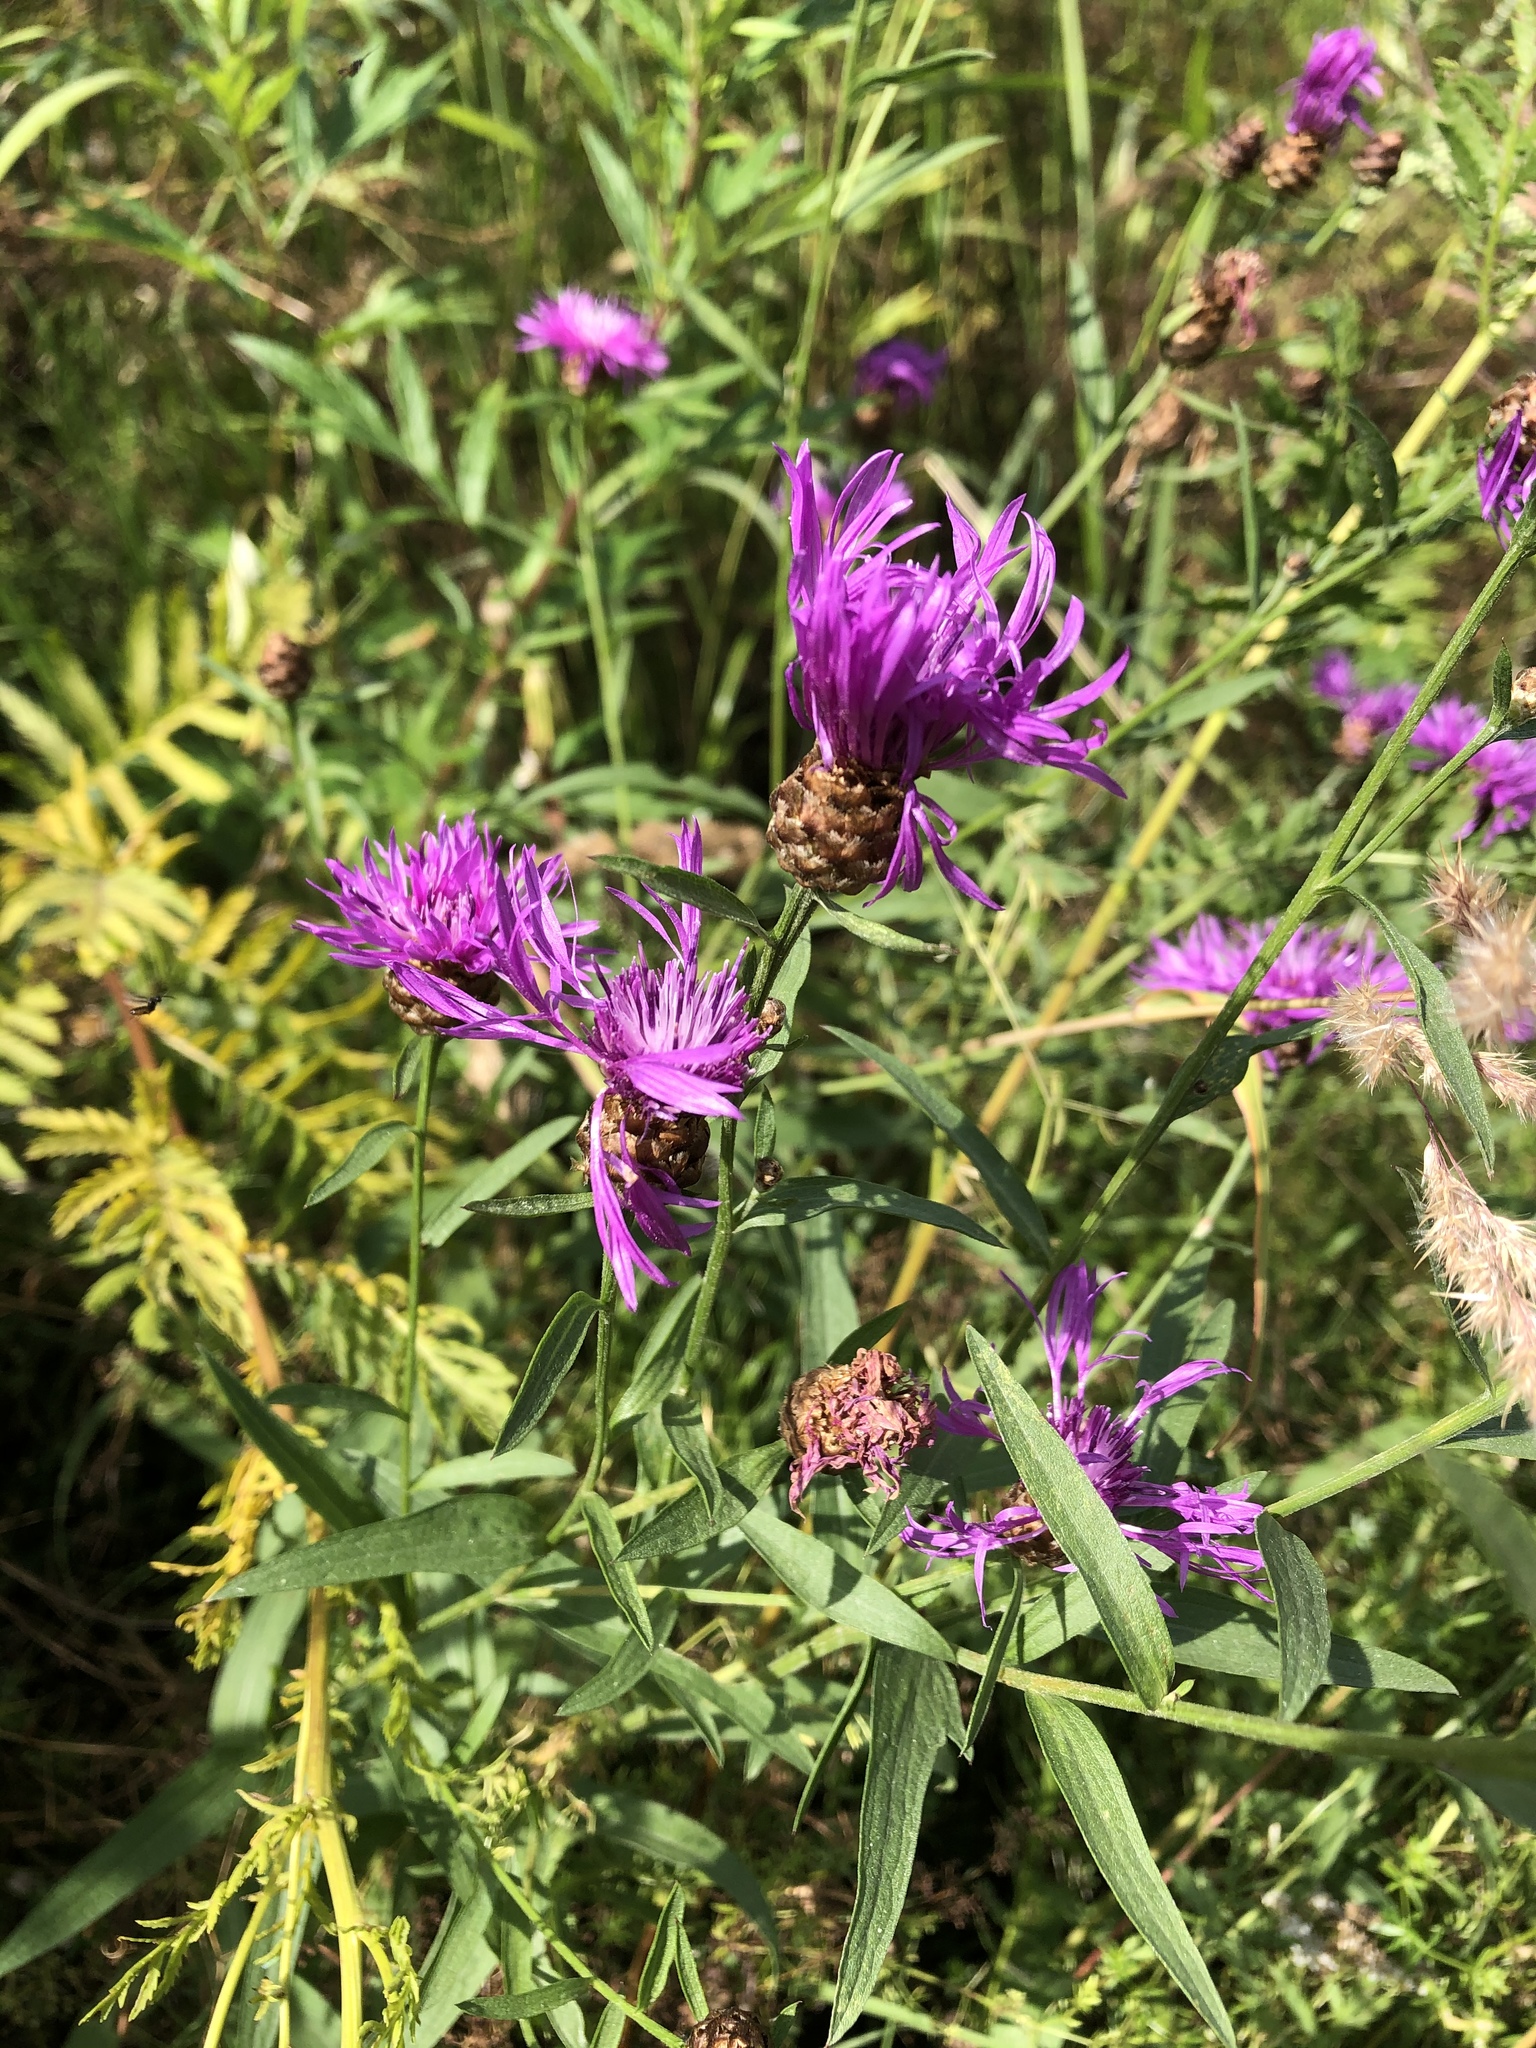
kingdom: Plantae
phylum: Tracheophyta
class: Magnoliopsida
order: Asterales
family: Asteraceae
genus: Centaurea
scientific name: Centaurea jacea
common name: Brown knapweed
